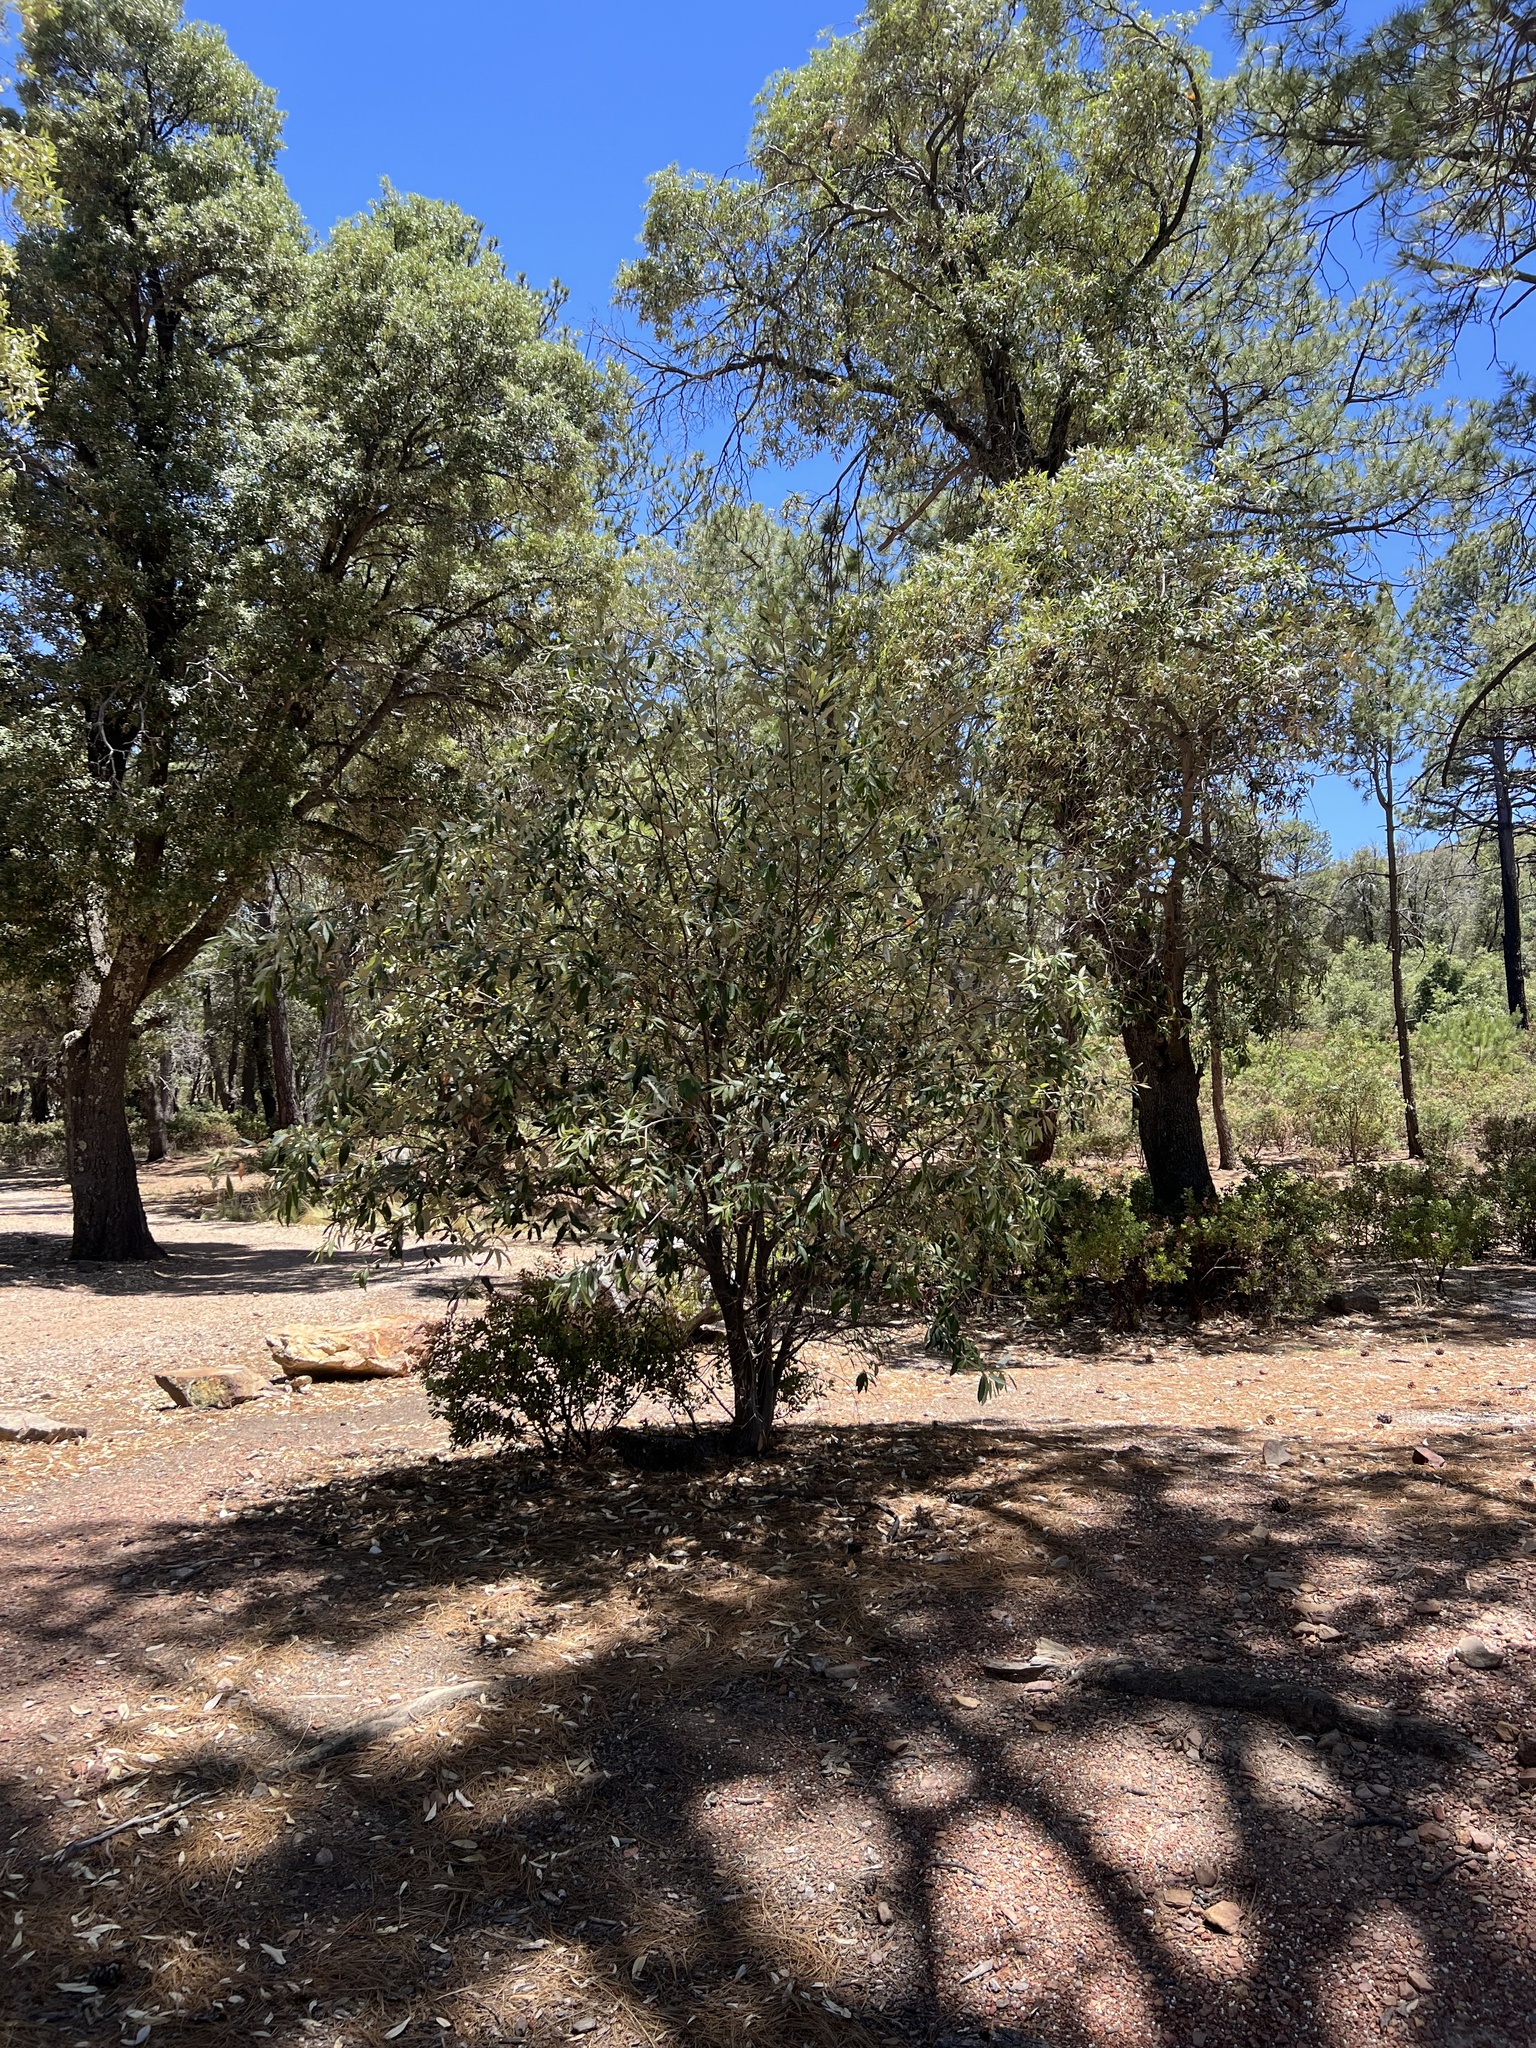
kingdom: Plantae
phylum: Tracheophyta
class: Magnoliopsida
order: Fagales
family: Fagaceae
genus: Quercus
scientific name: Quercus hypoleucoides
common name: Silverleaf oak
